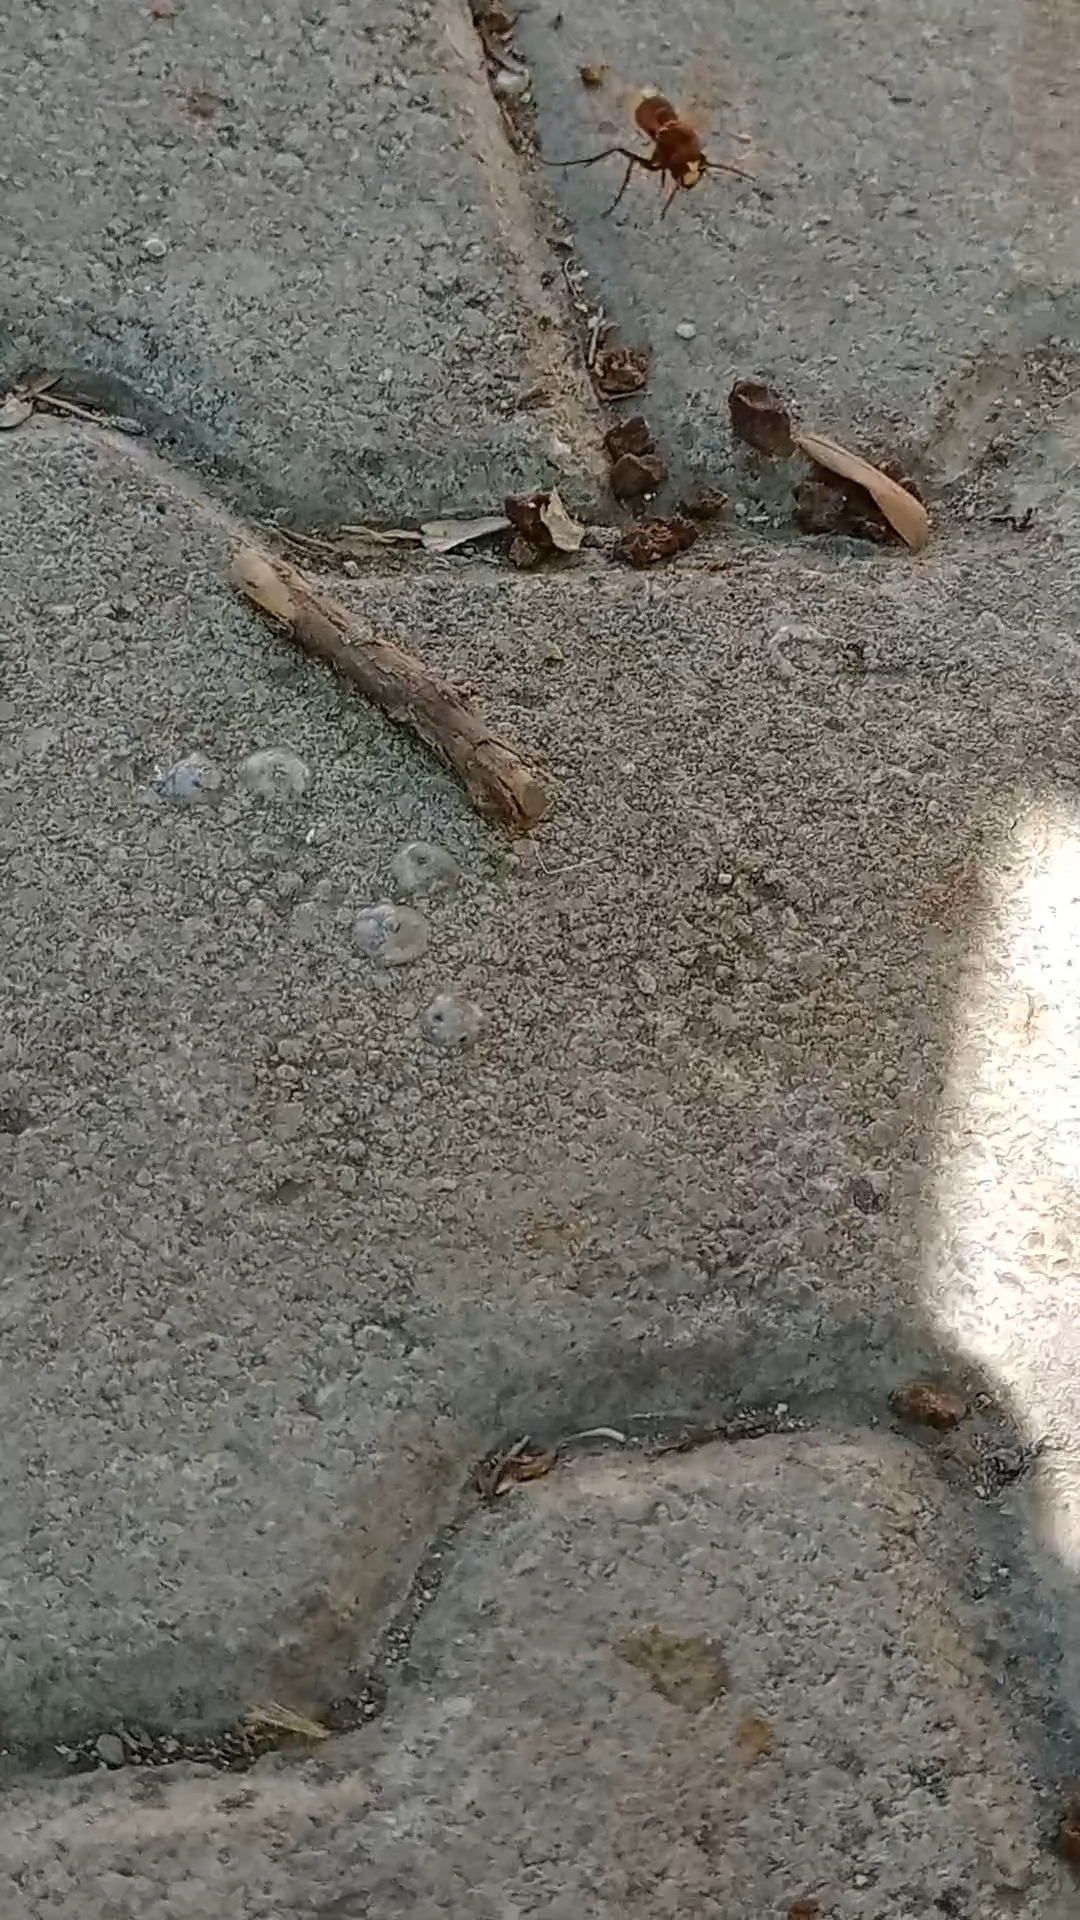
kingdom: Animalia
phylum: Arthropoda
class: Insecta
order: Hymenoptera
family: Vespidae
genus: Vespa
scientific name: Vespa orientalis
